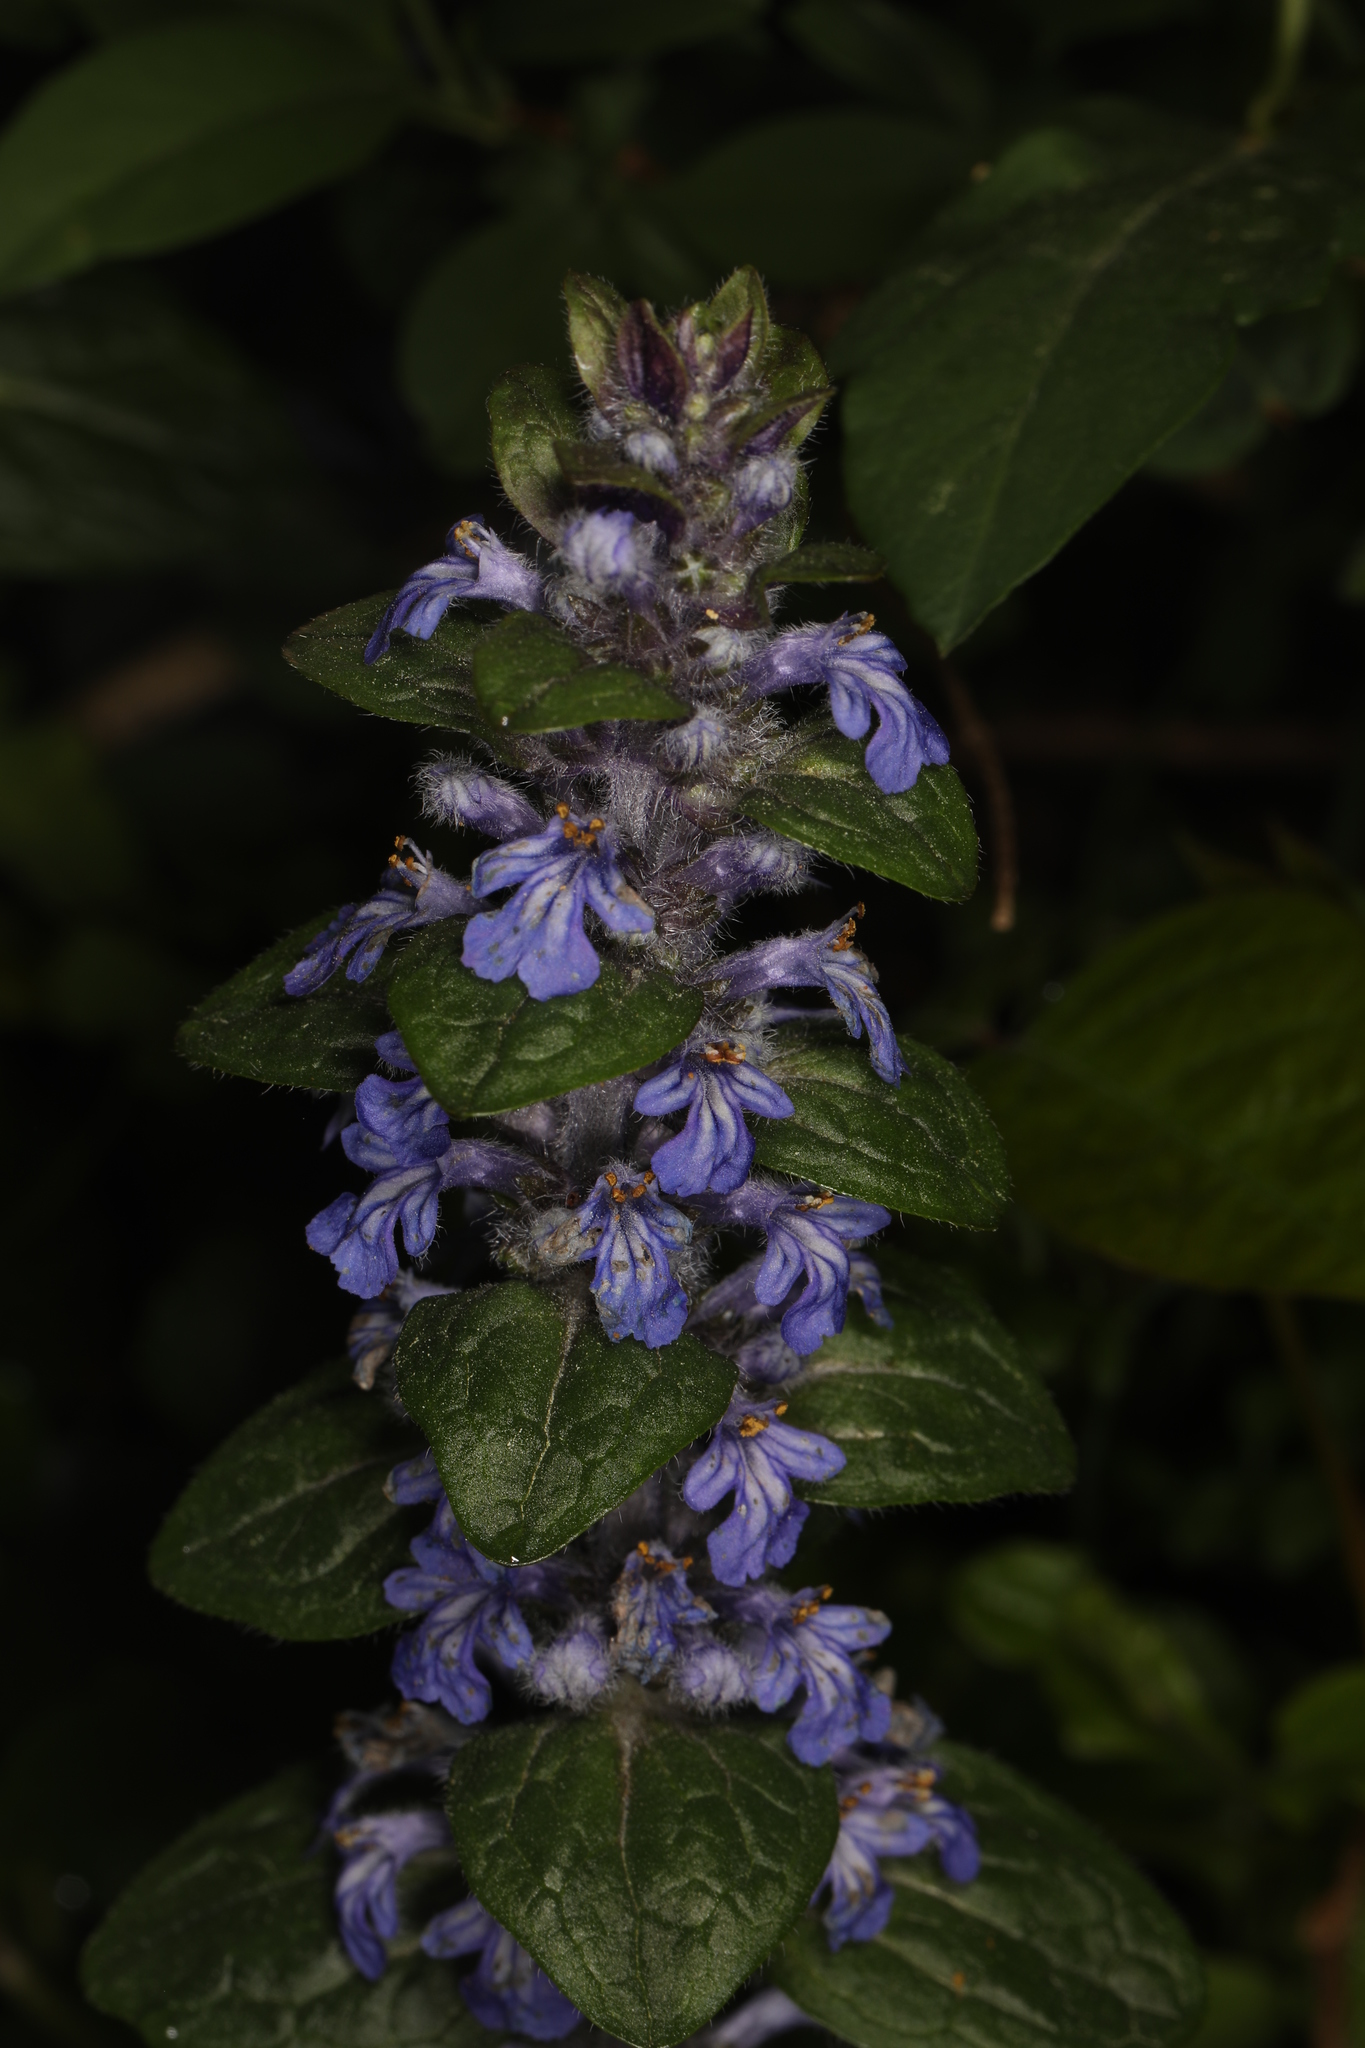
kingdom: Plantae
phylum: Tracheophyta
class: Magnoliopsida
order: Lamiales
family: Lamiaceae
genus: Ajuga
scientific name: Ajuga reptans
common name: Bugle
